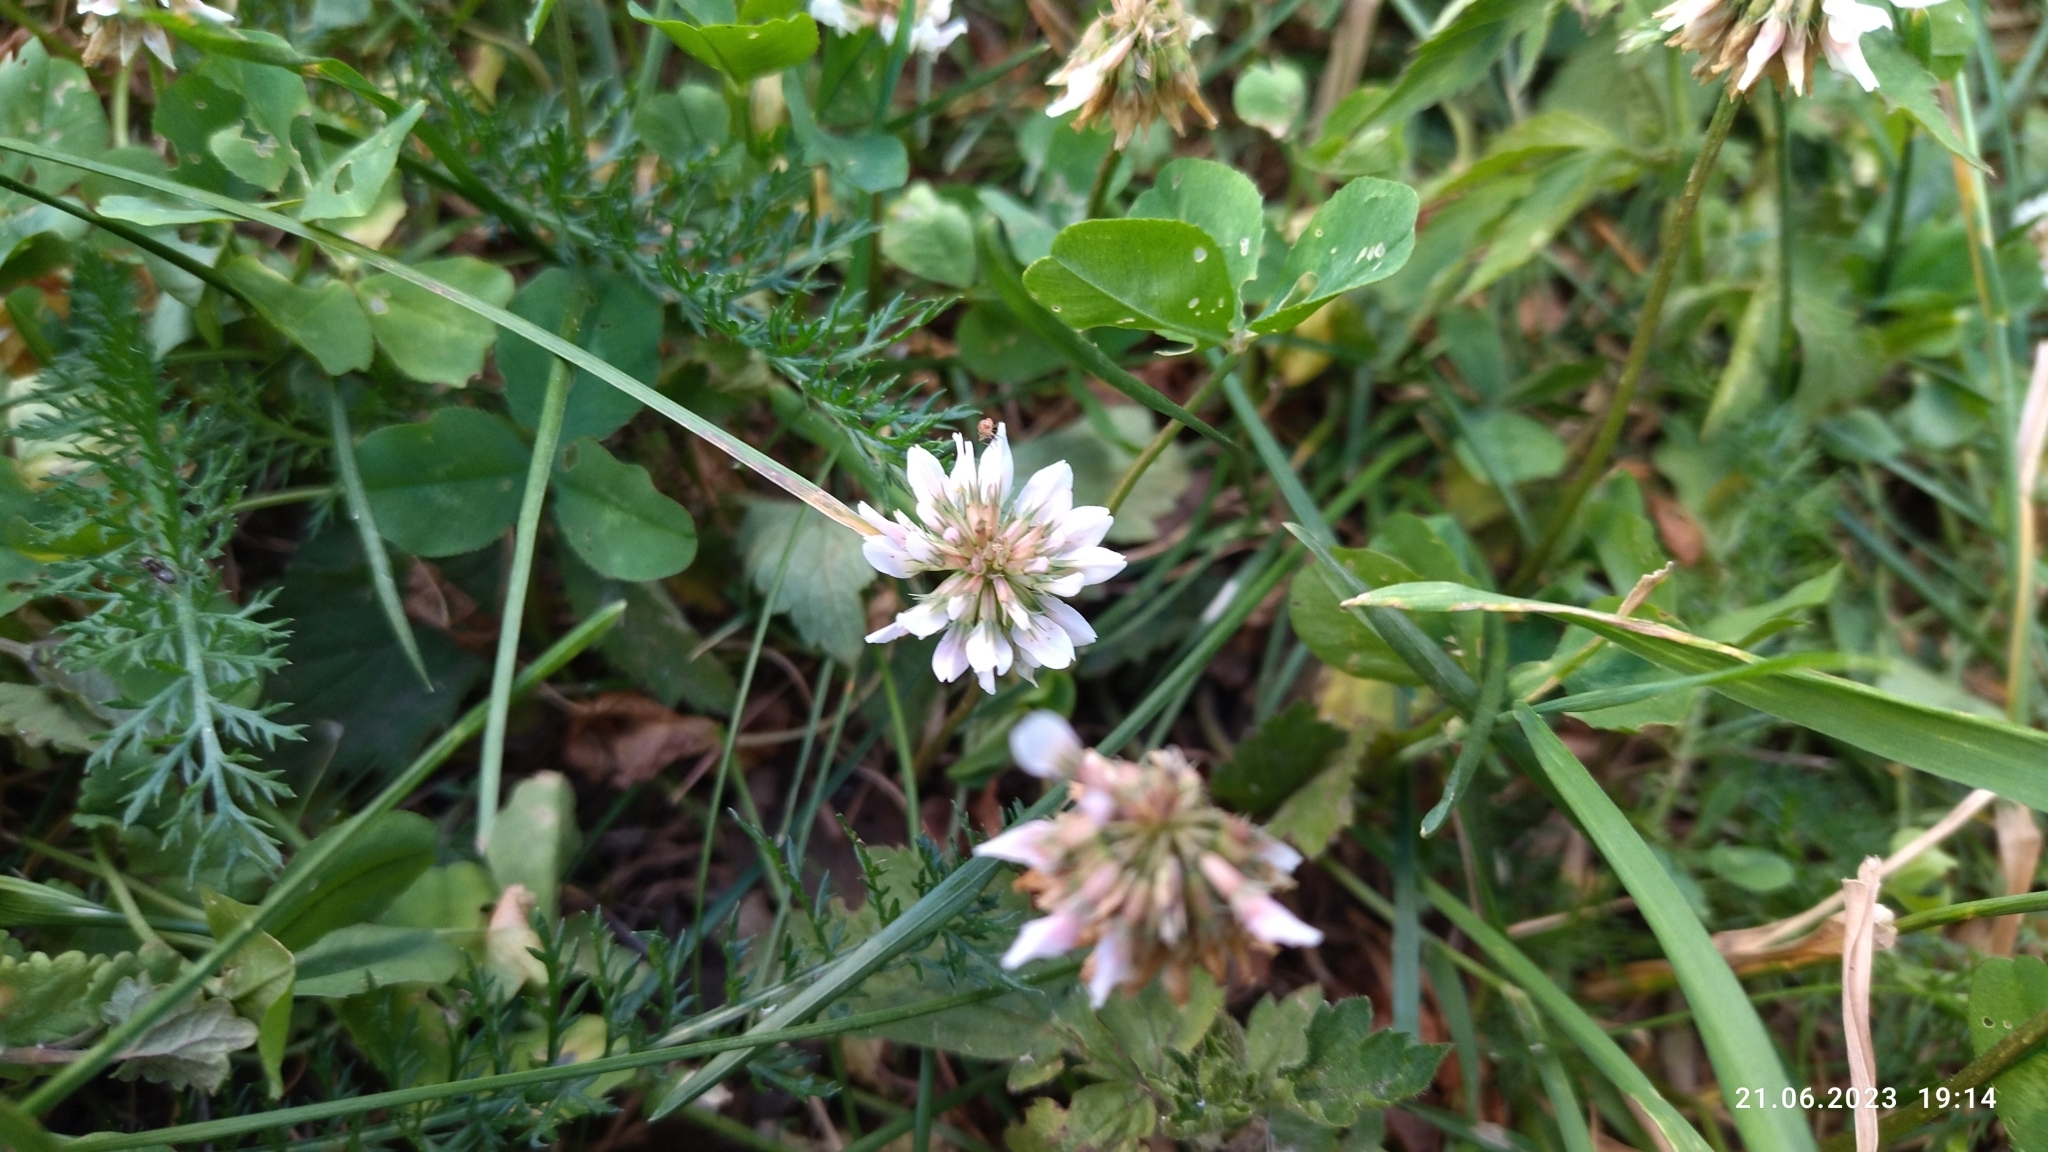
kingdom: Plantae
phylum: Tracheophyta
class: Magnoliopsida
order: Fabales
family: Fabaceae
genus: Trifolium
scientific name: Trifolium repens
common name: White clover
